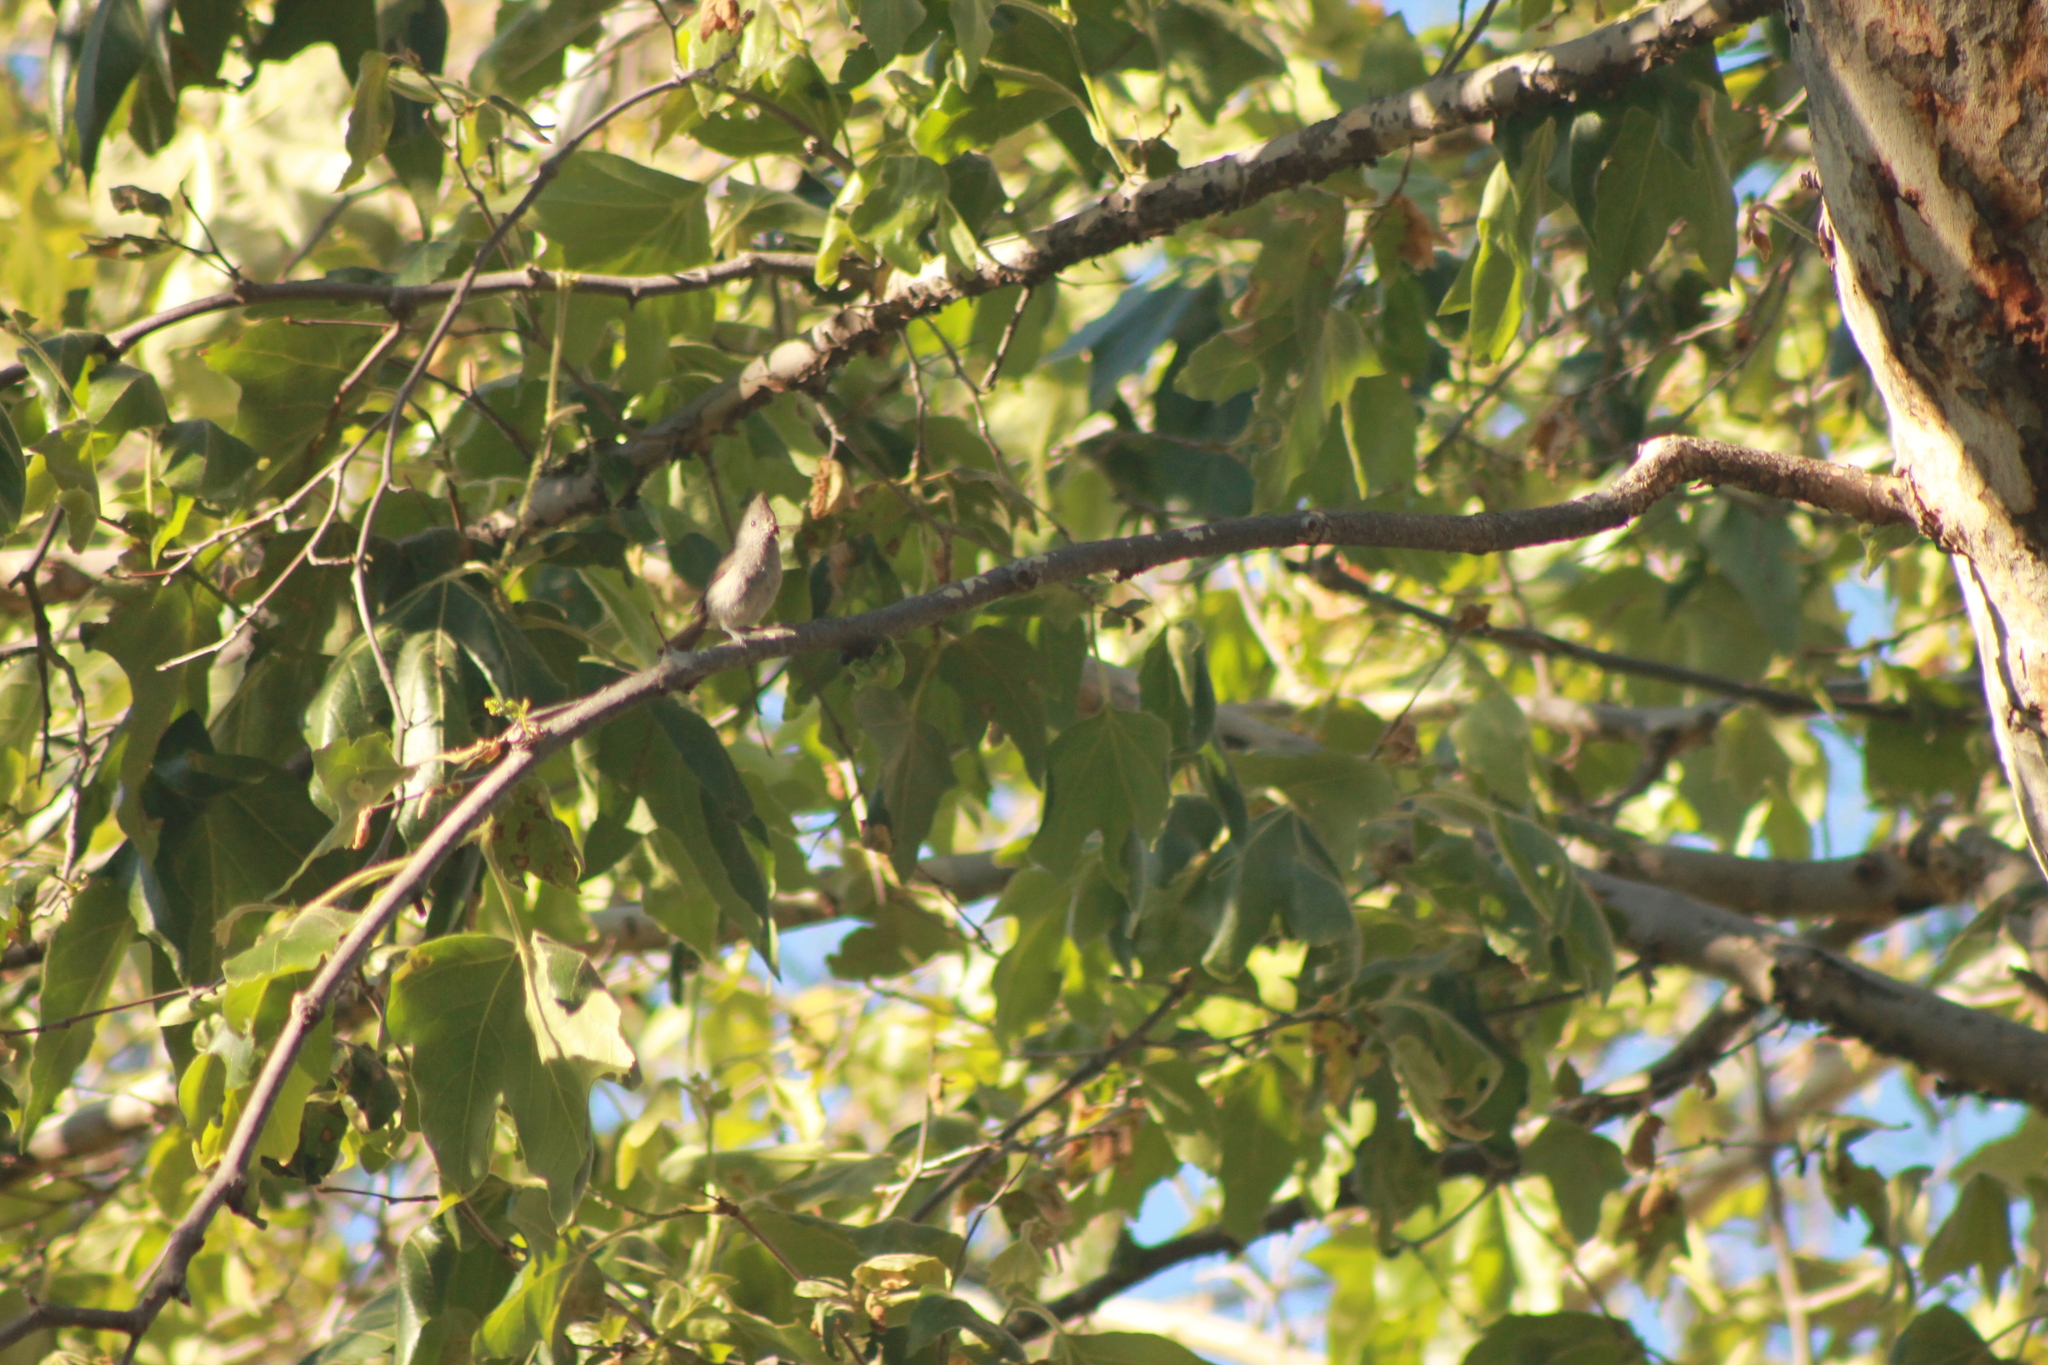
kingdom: Animalia
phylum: Chordata
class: Aves
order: Passeriformes
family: Paridae
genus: Baeolophus
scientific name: Baeolophus inornatus
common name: Oak titmouse
